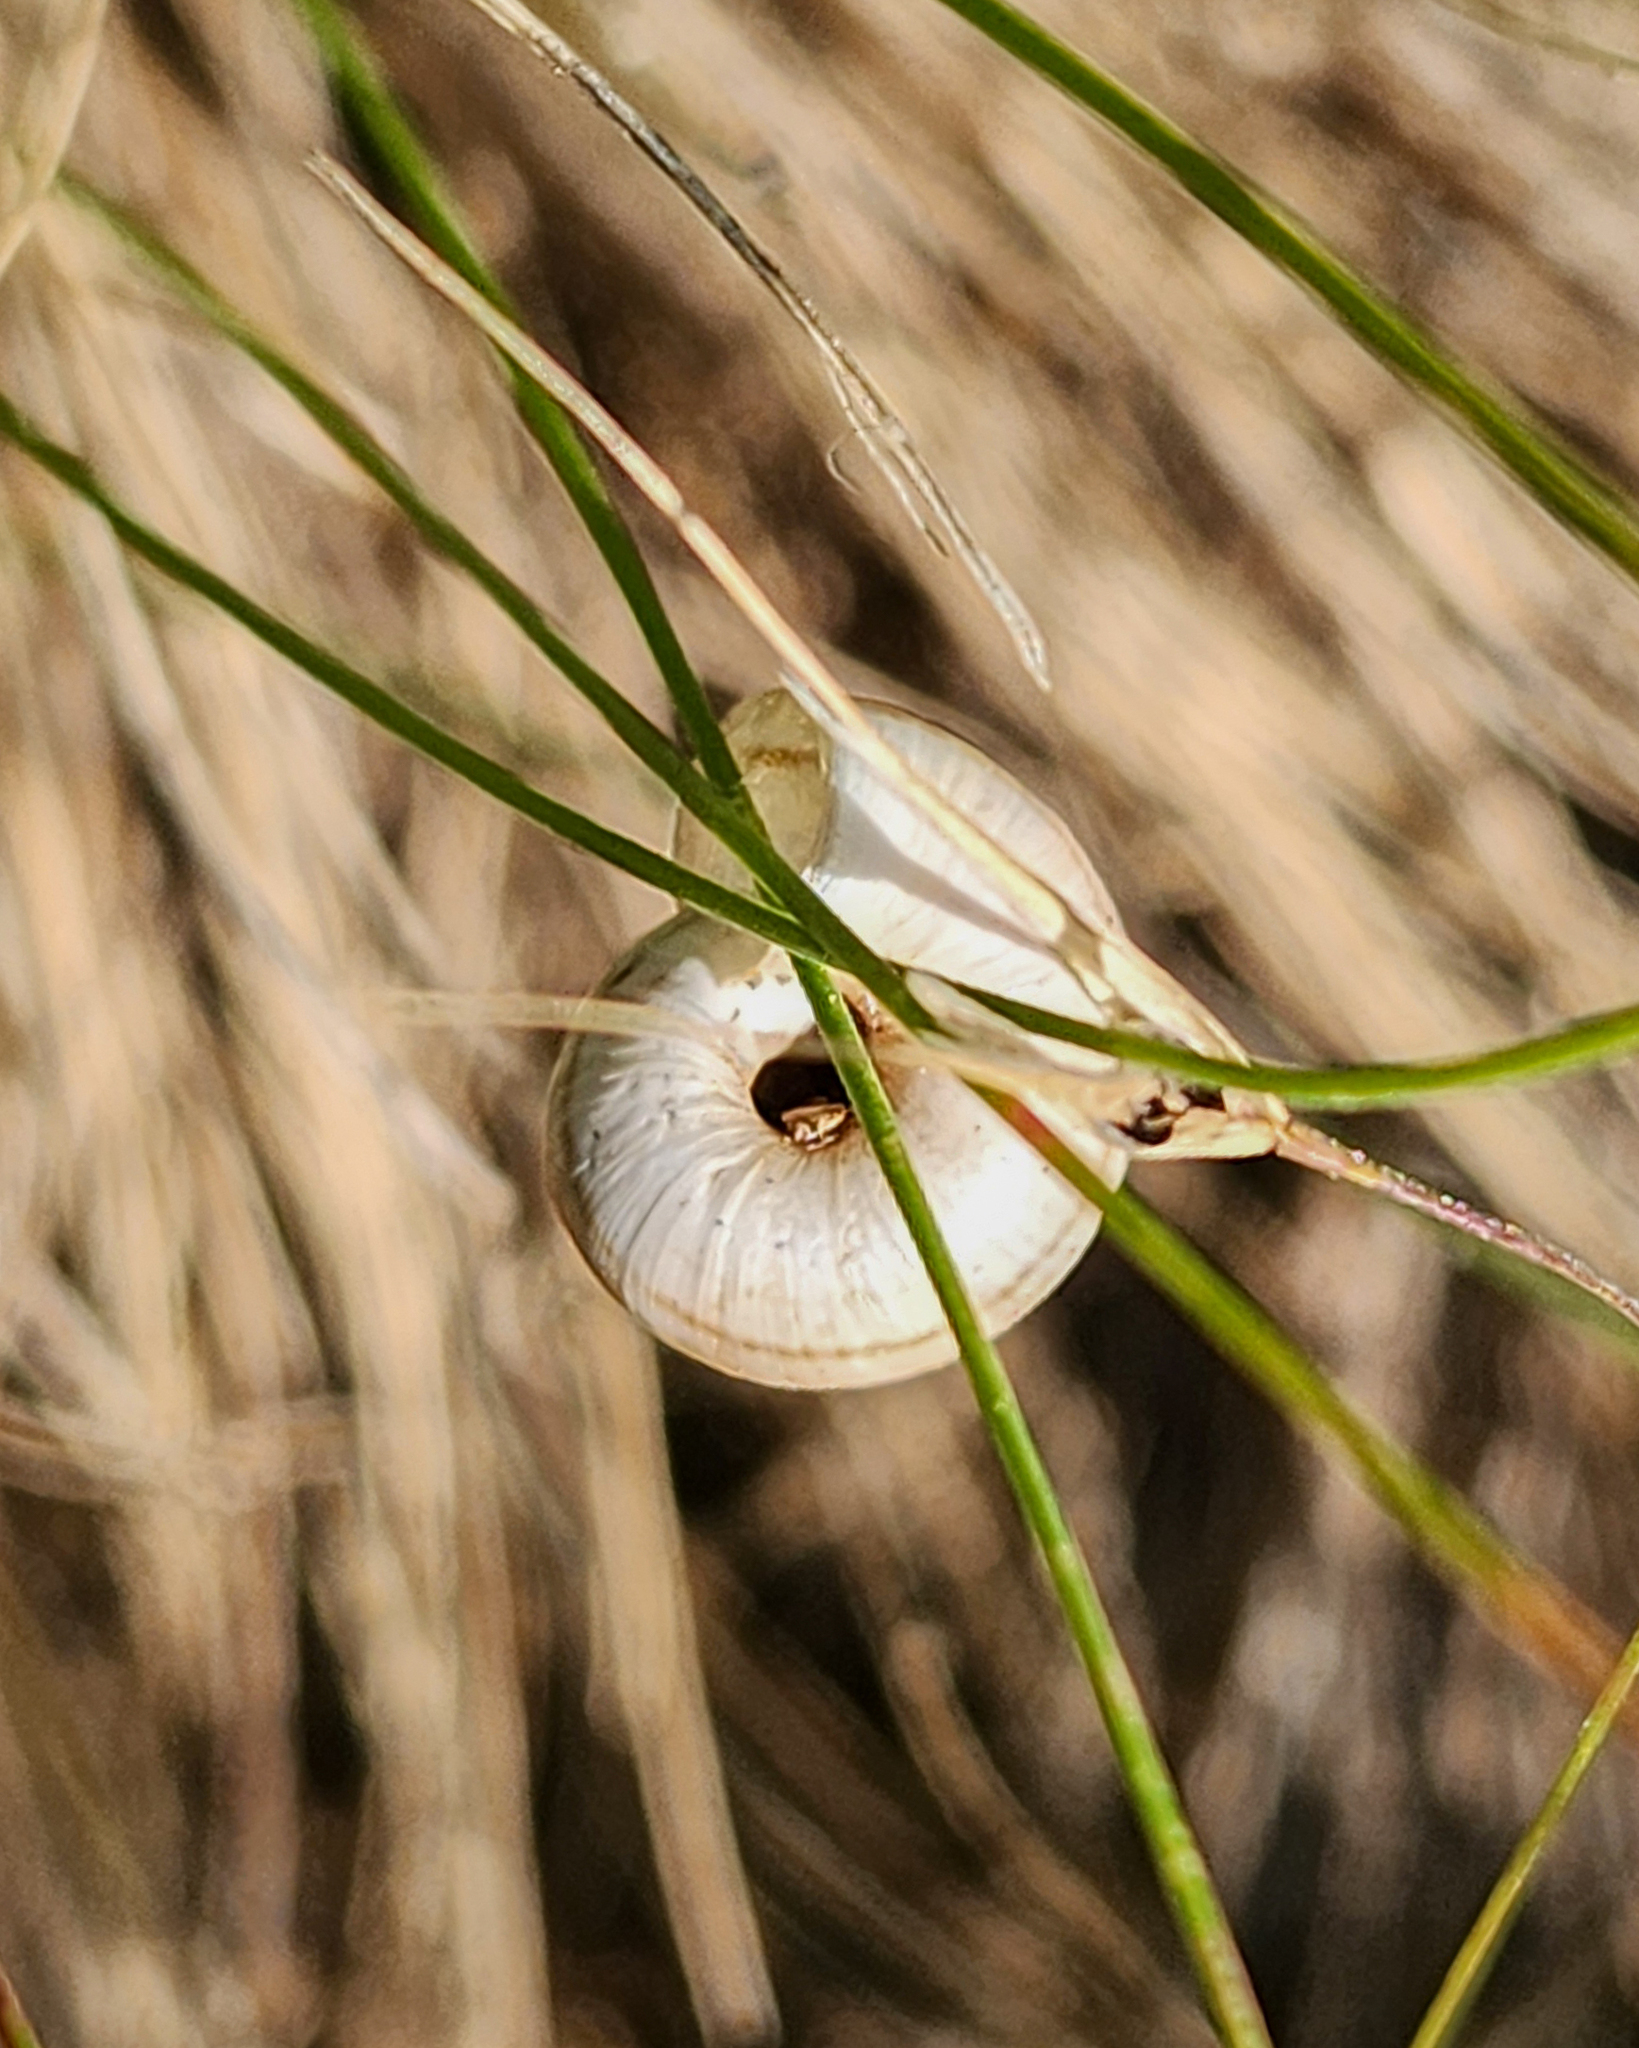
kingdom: Animalia
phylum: Mollusca
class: Gastropoda
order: Stylommatophora
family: Geomitridae
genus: Xerolenta
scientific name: Xerolenta obvia
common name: White heath snail
